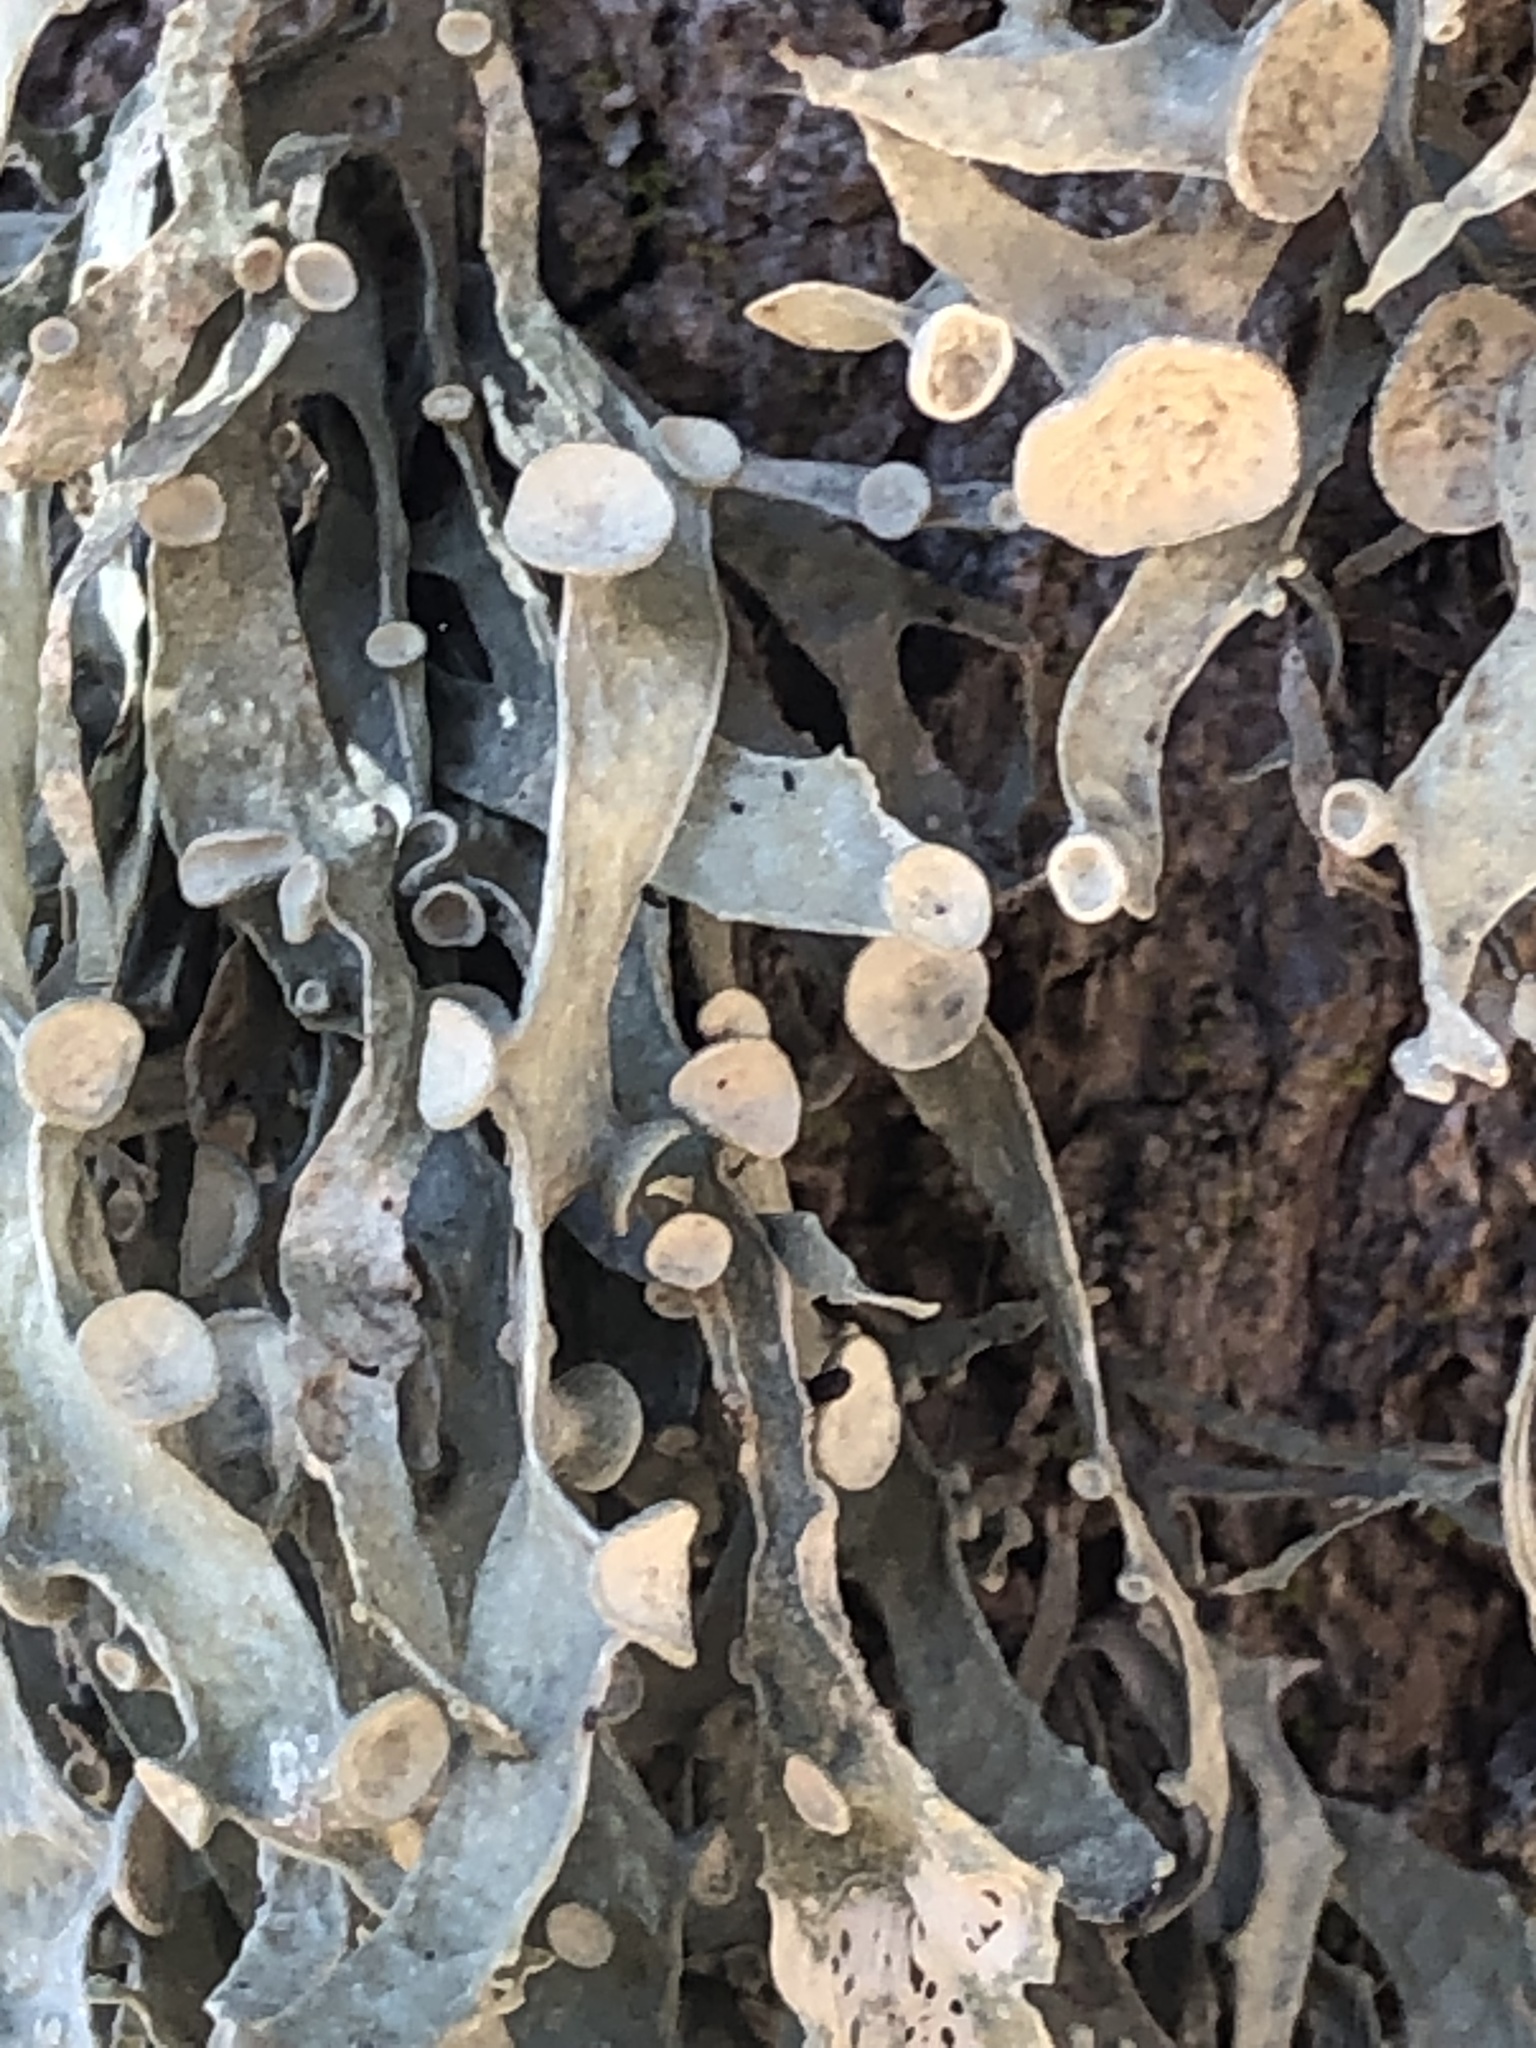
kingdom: Fungi
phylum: Ascomycota
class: Lecanoromycetes
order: Lecanorales
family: Ramalinaceae
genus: Ramalina
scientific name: Ramalina leptocarpha
